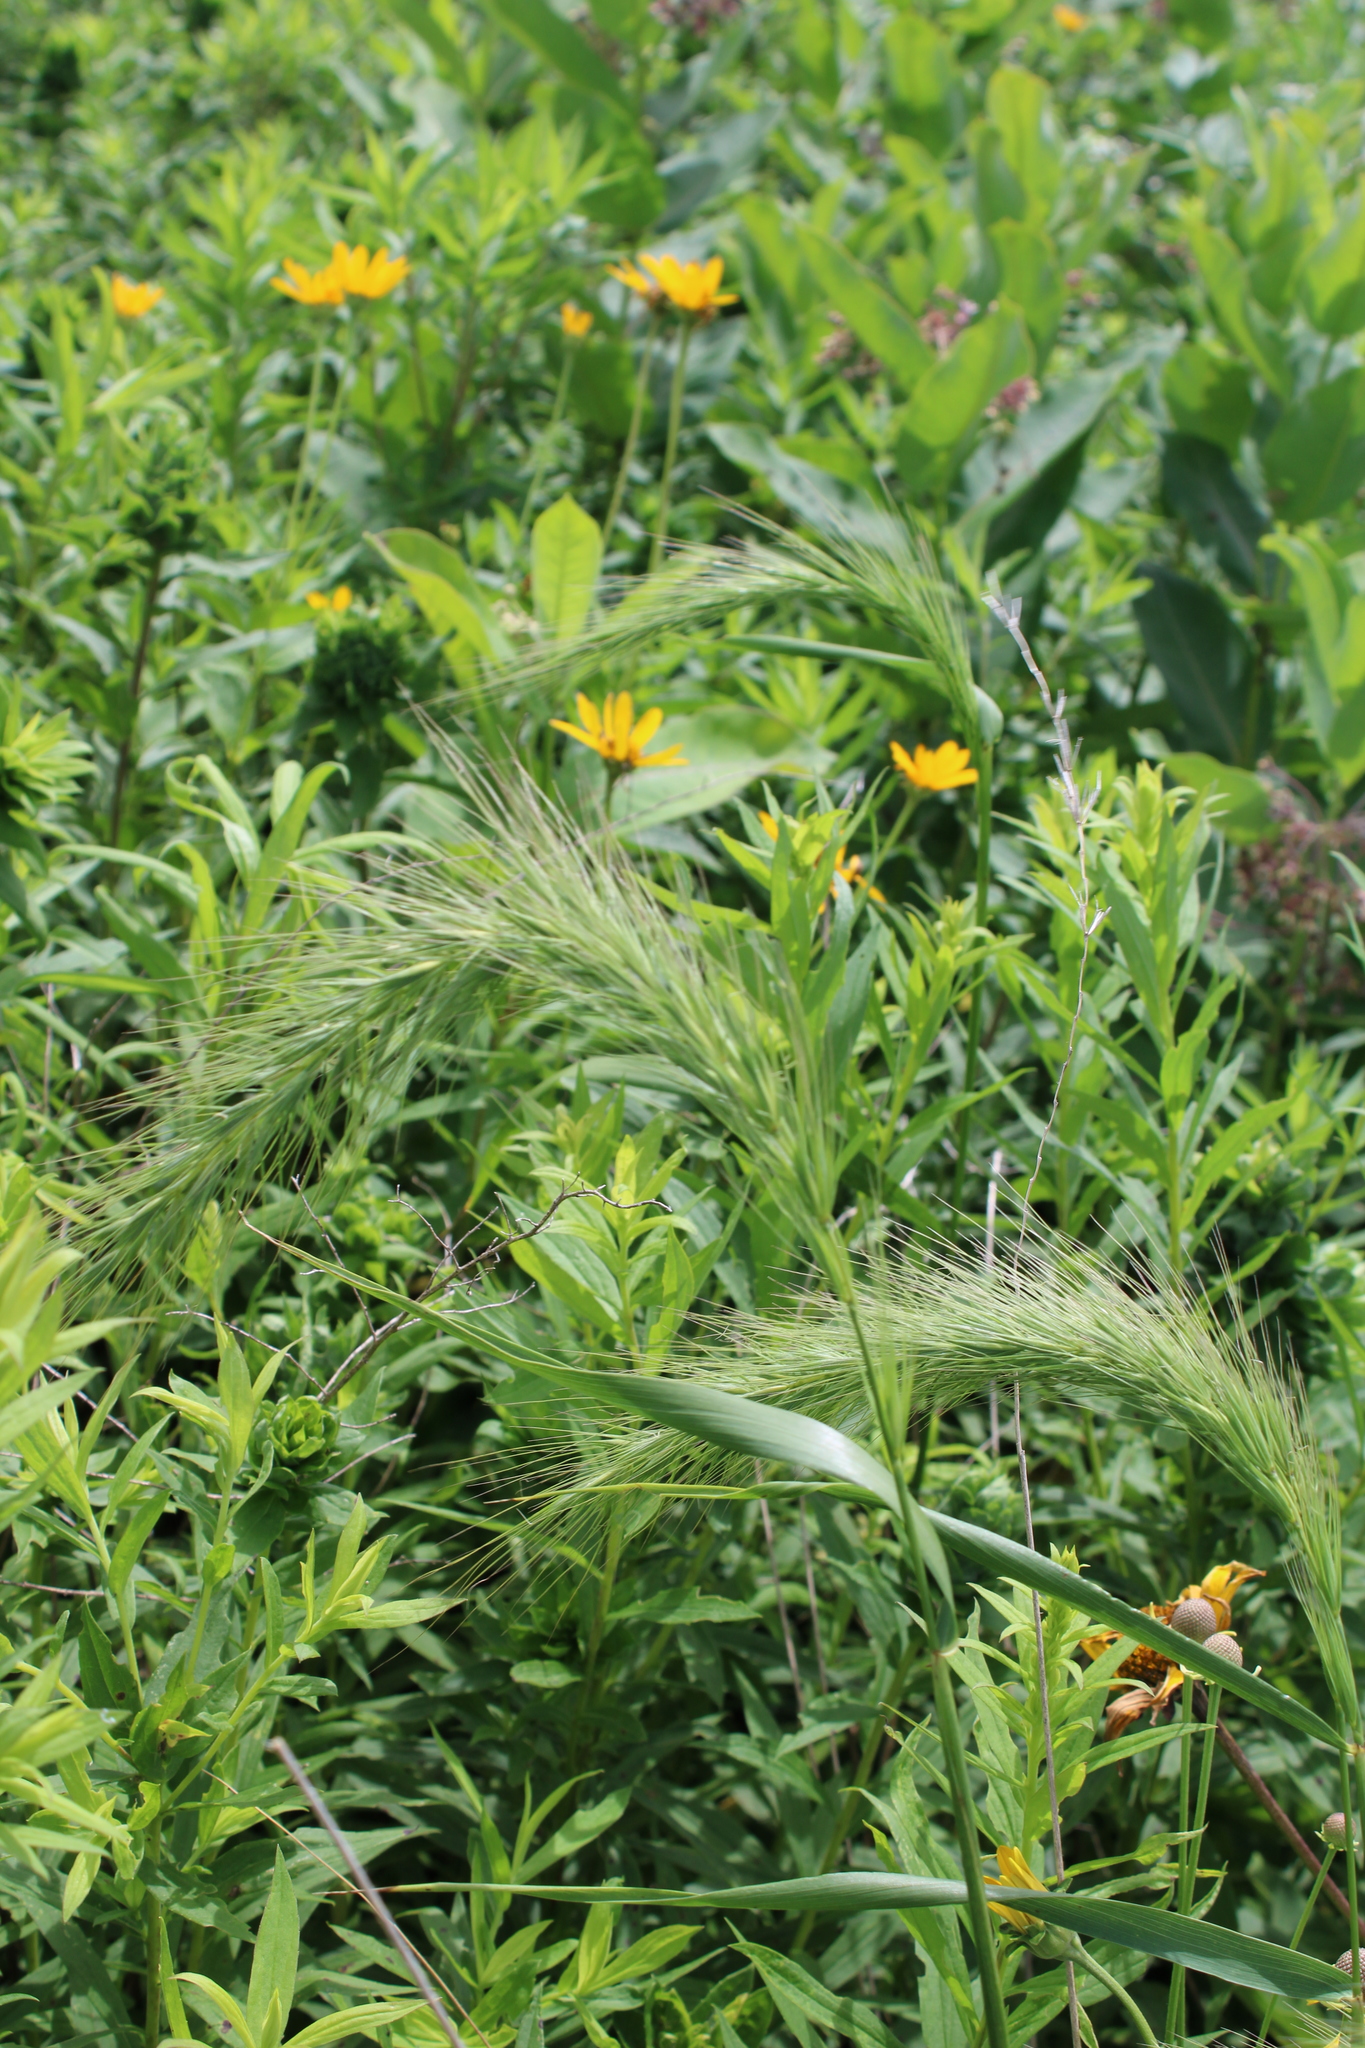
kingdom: Plantae
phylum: Tracheophyta
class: Liliopsida
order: Poales
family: Poaceae
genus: Elymus
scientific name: Elymus canadensis
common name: Canada wild rye
